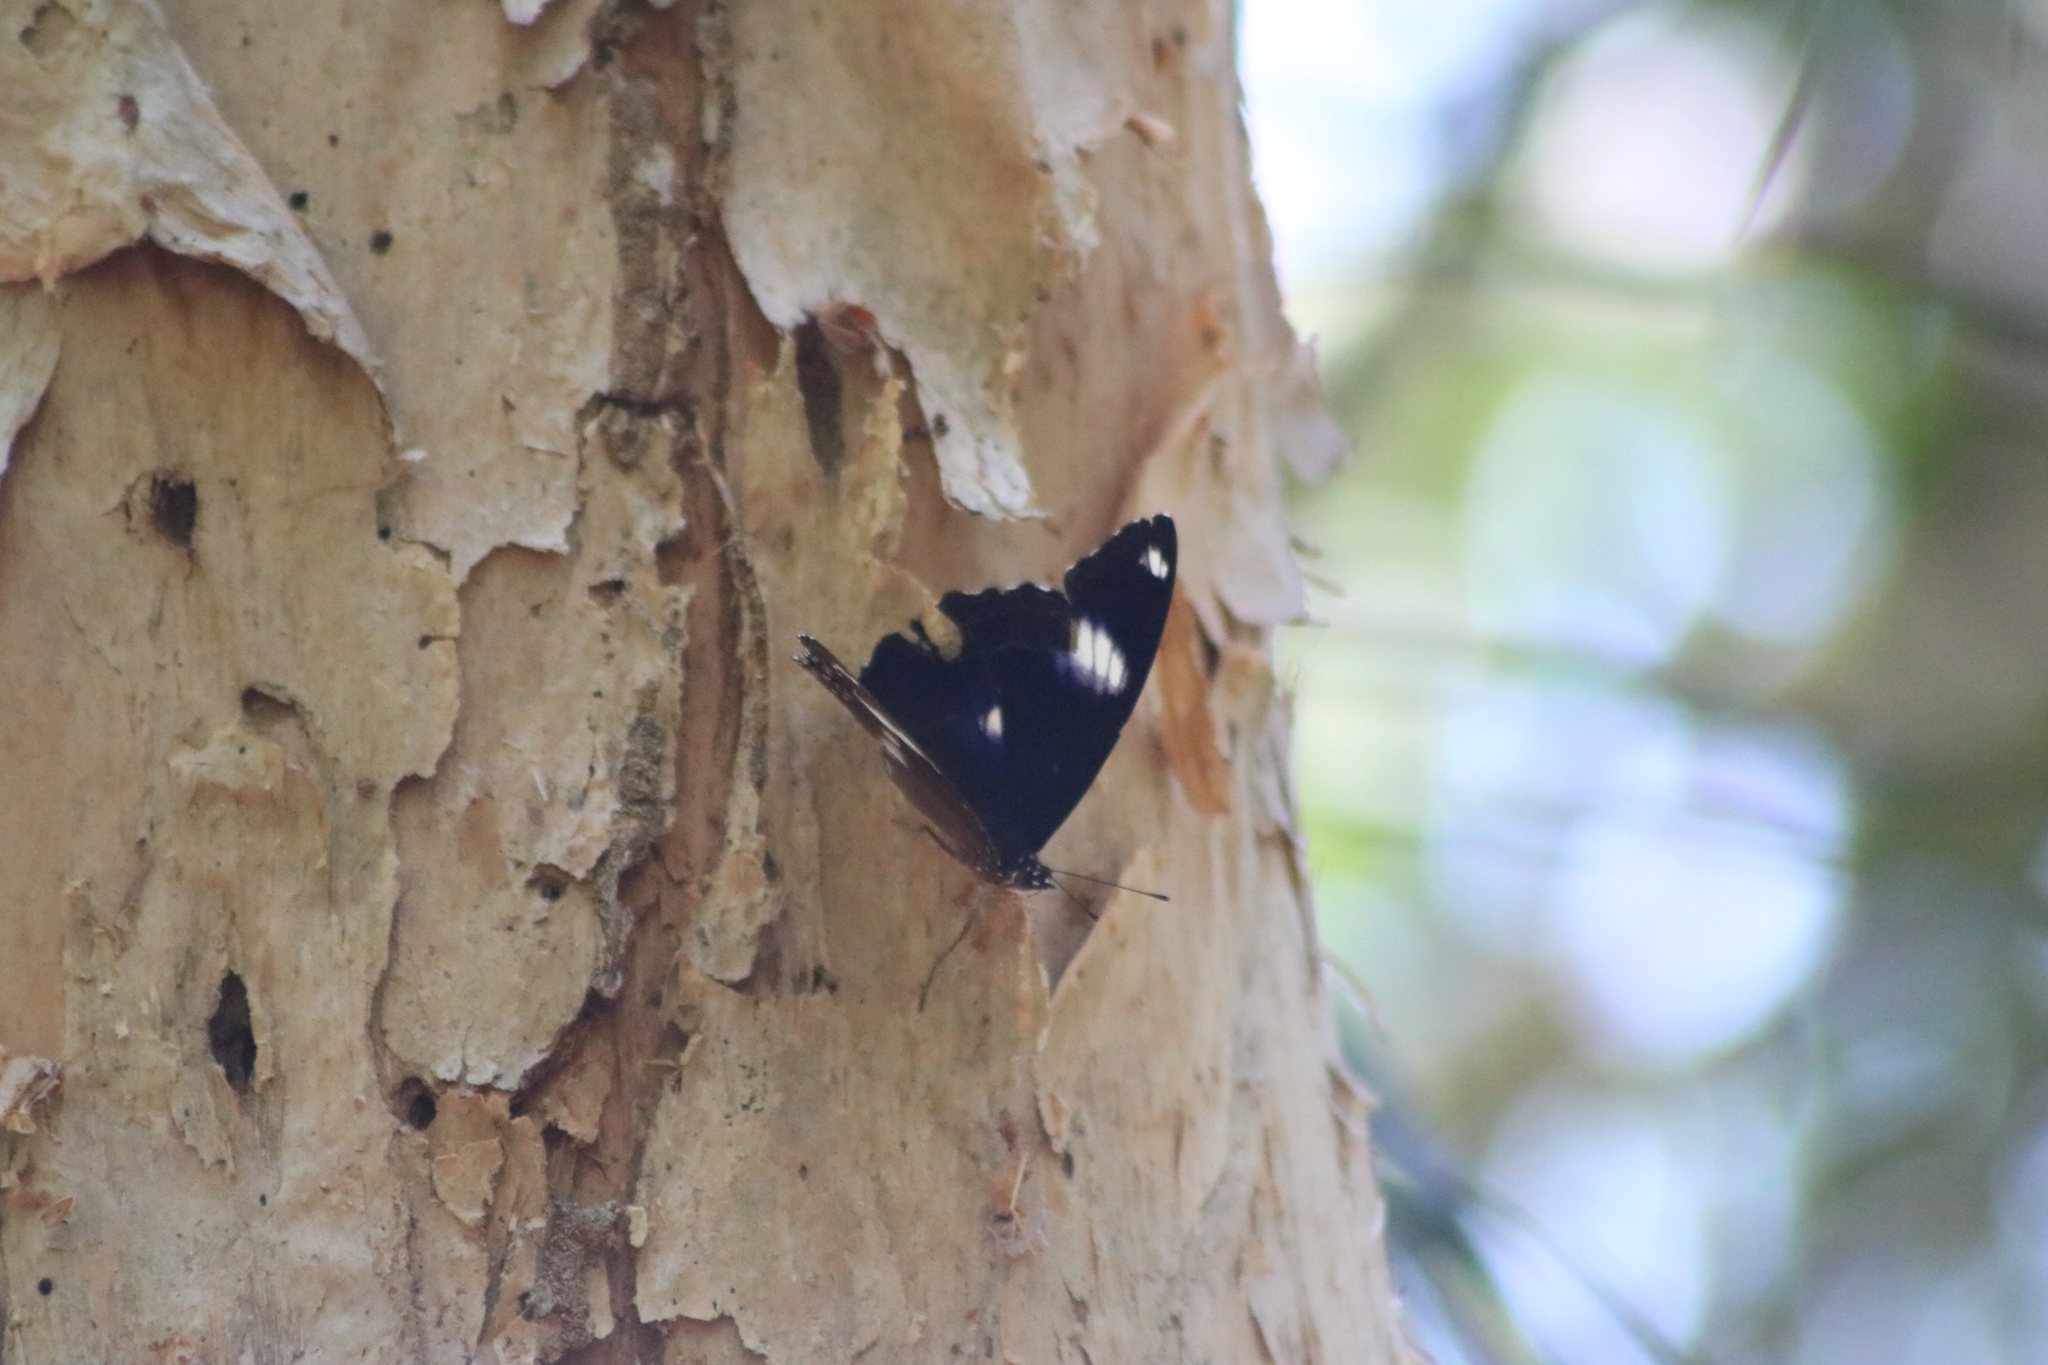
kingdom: Animalia
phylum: Arthropoda
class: Insecta
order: Lepidoptera
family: Nymphalidae
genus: Hypolimnas
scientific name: Hypolimnas bolina
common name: Great eggfly
